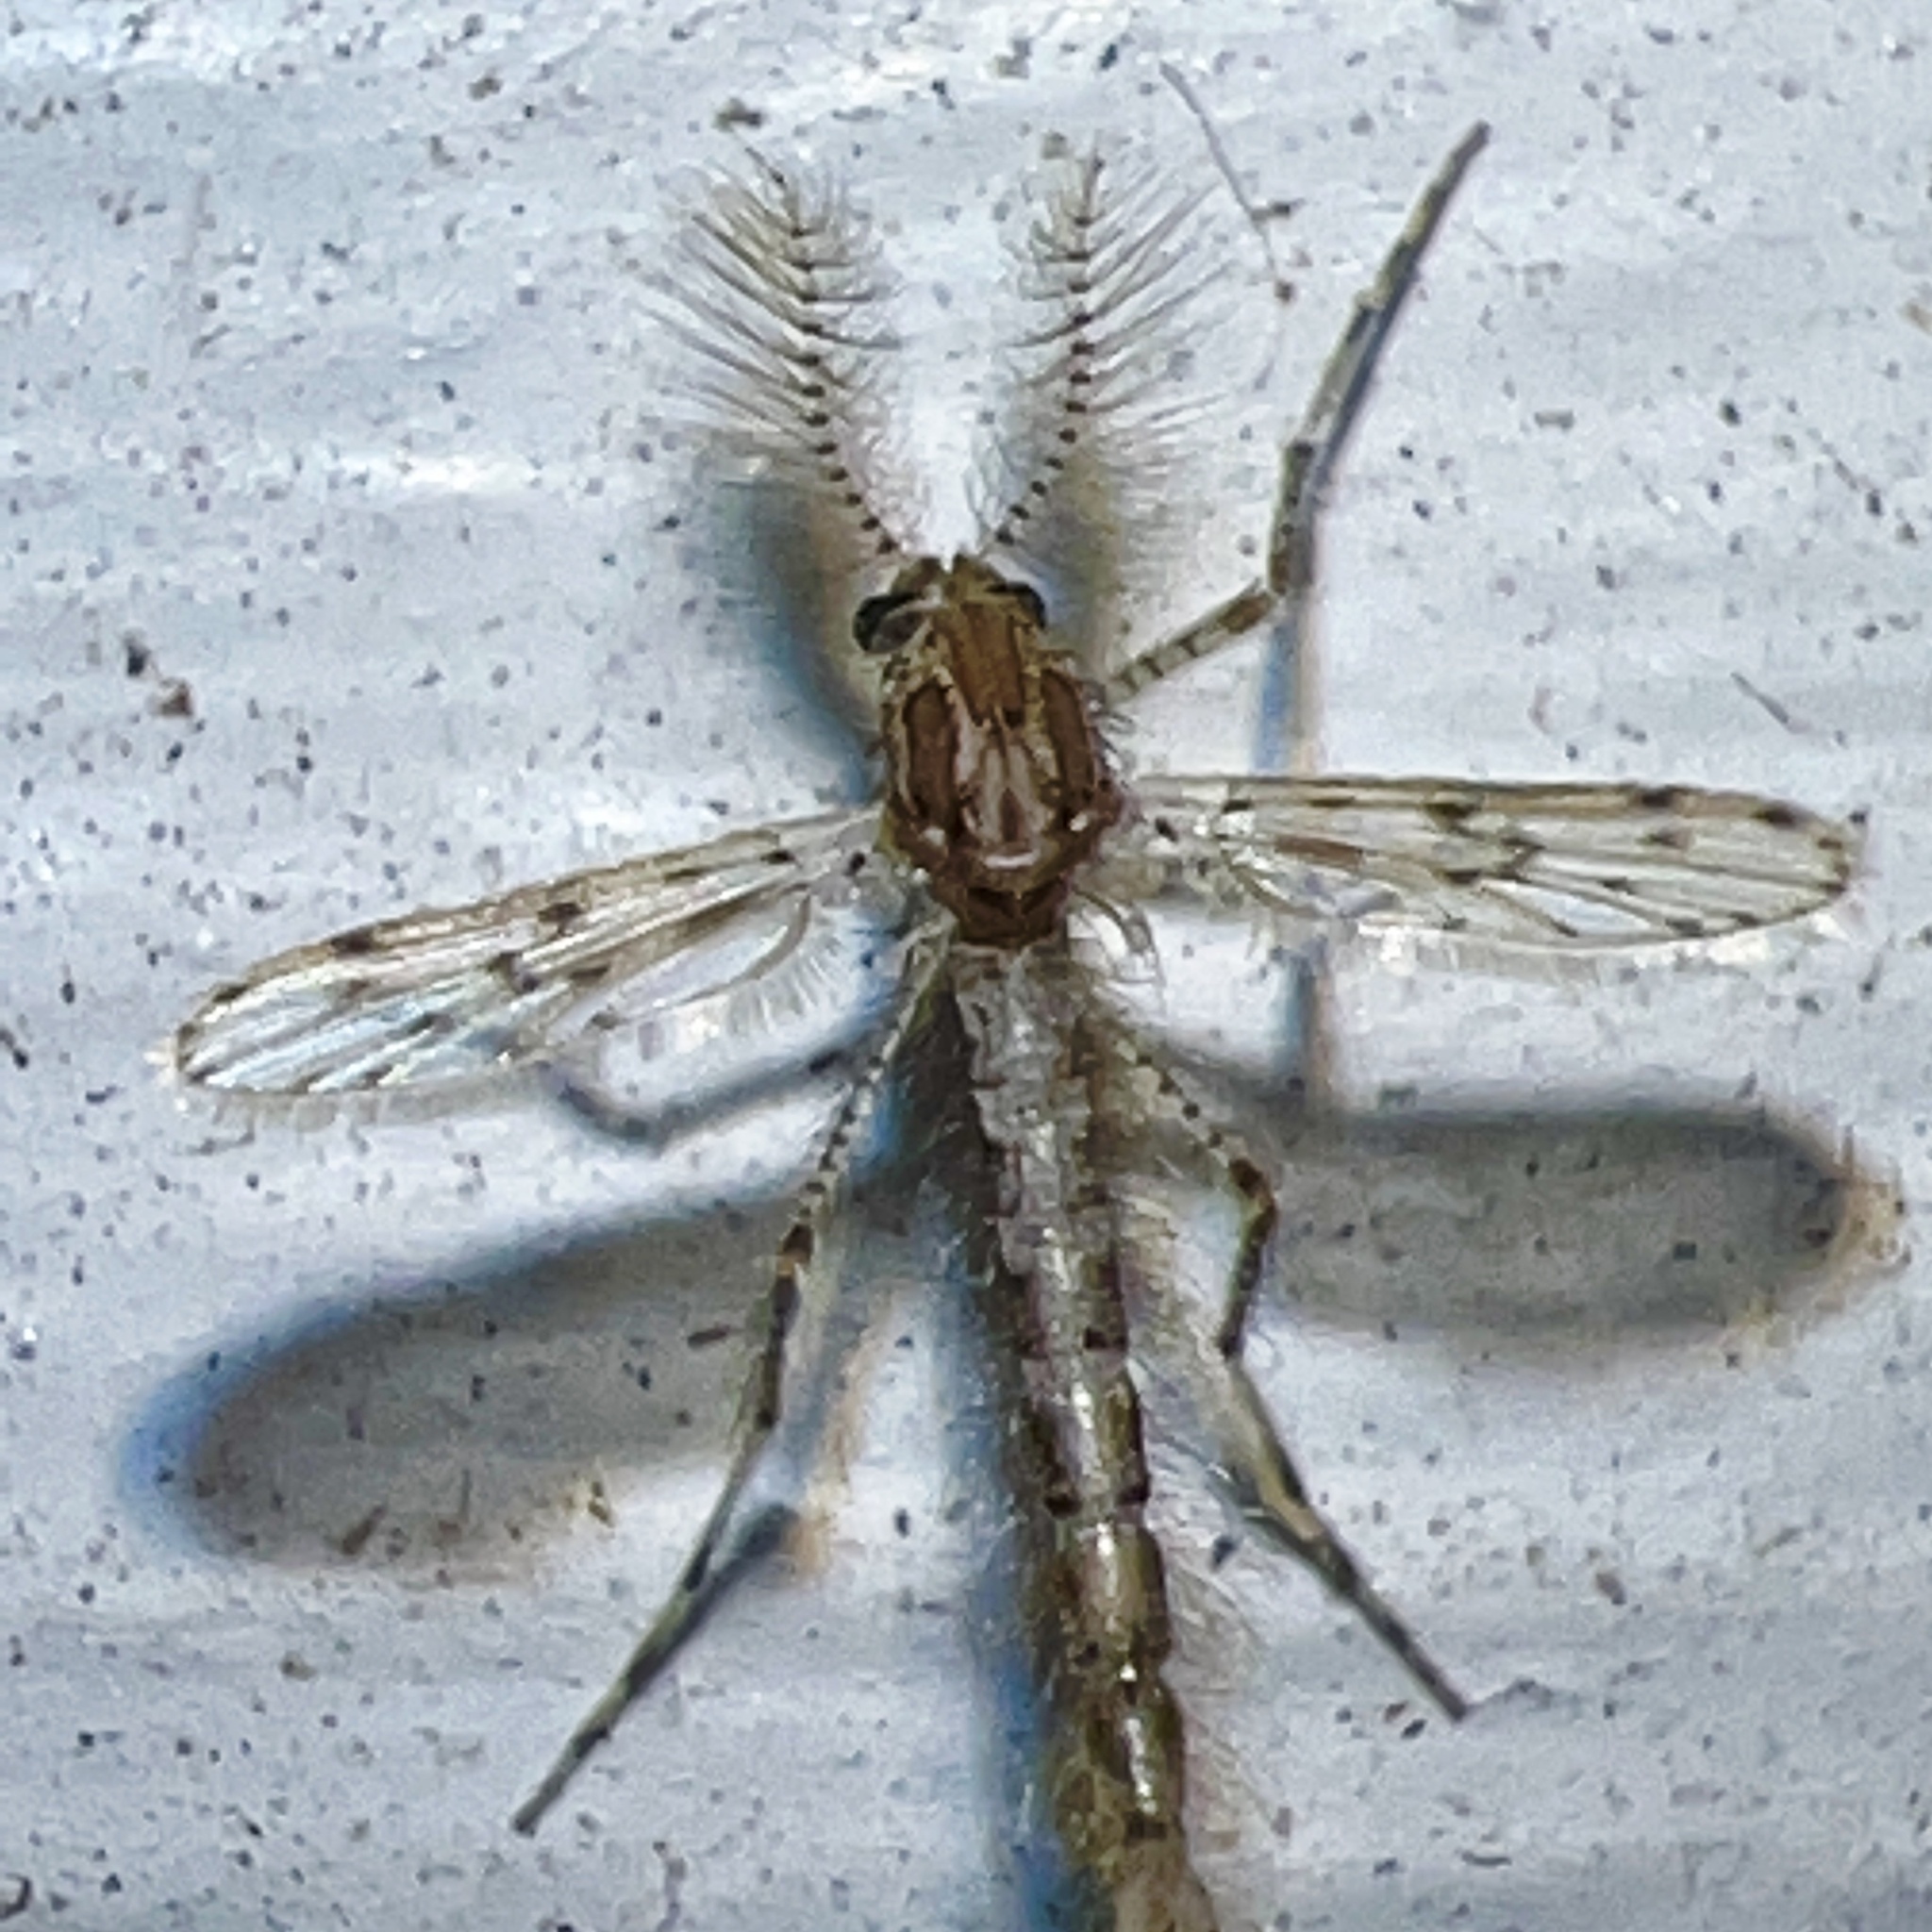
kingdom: Animalia
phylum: Arthropoda
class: Insecta
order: Diptera
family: Chaoboridae
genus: Chaoborus
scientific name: Chaoborus punctipennis
